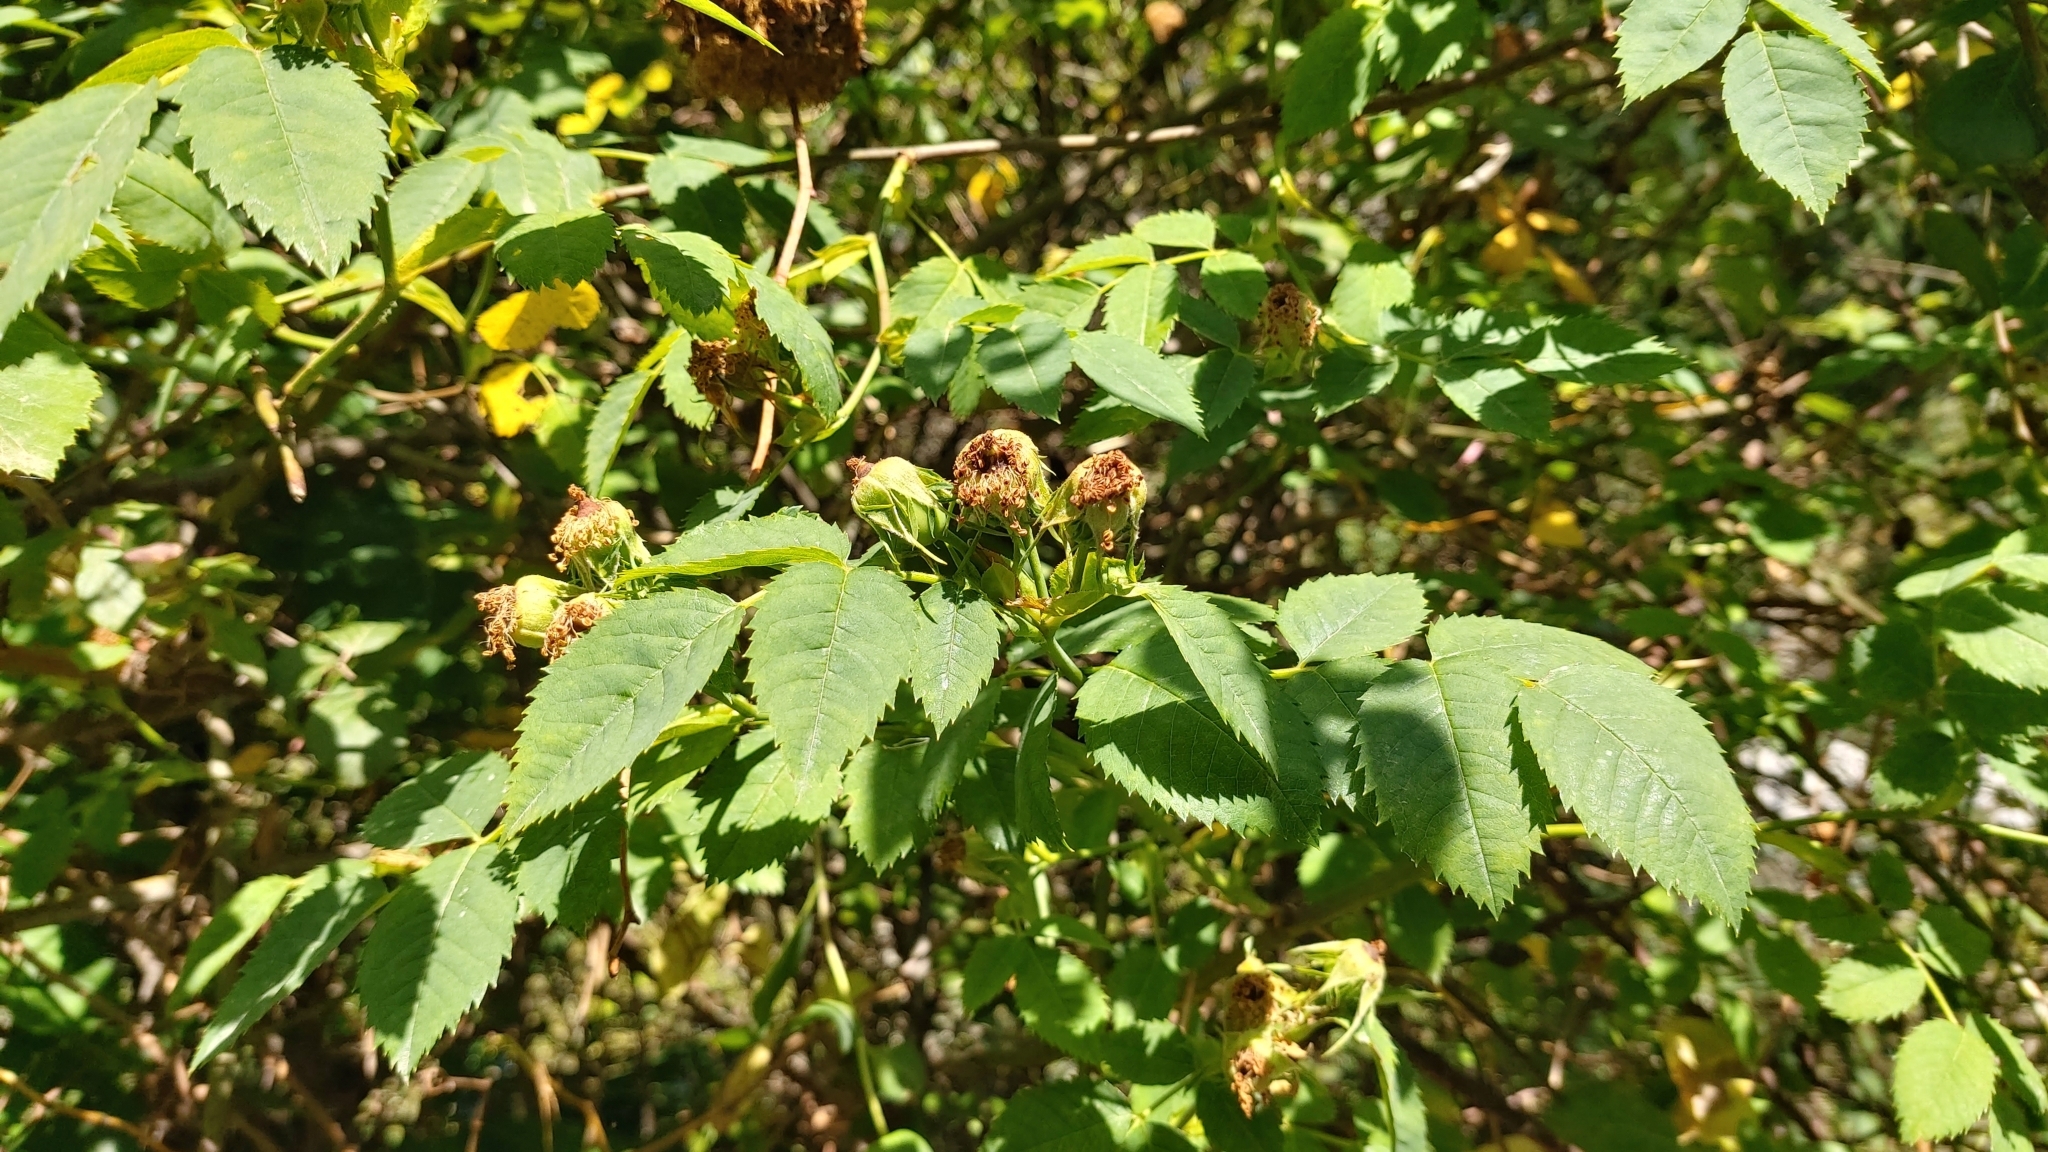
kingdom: Animalia
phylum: Arthropoda
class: Insecta
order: Hymenoptera
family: Cynipidae
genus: Diplolepis
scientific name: Diplolepis rosae
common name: Bedeguar gall
